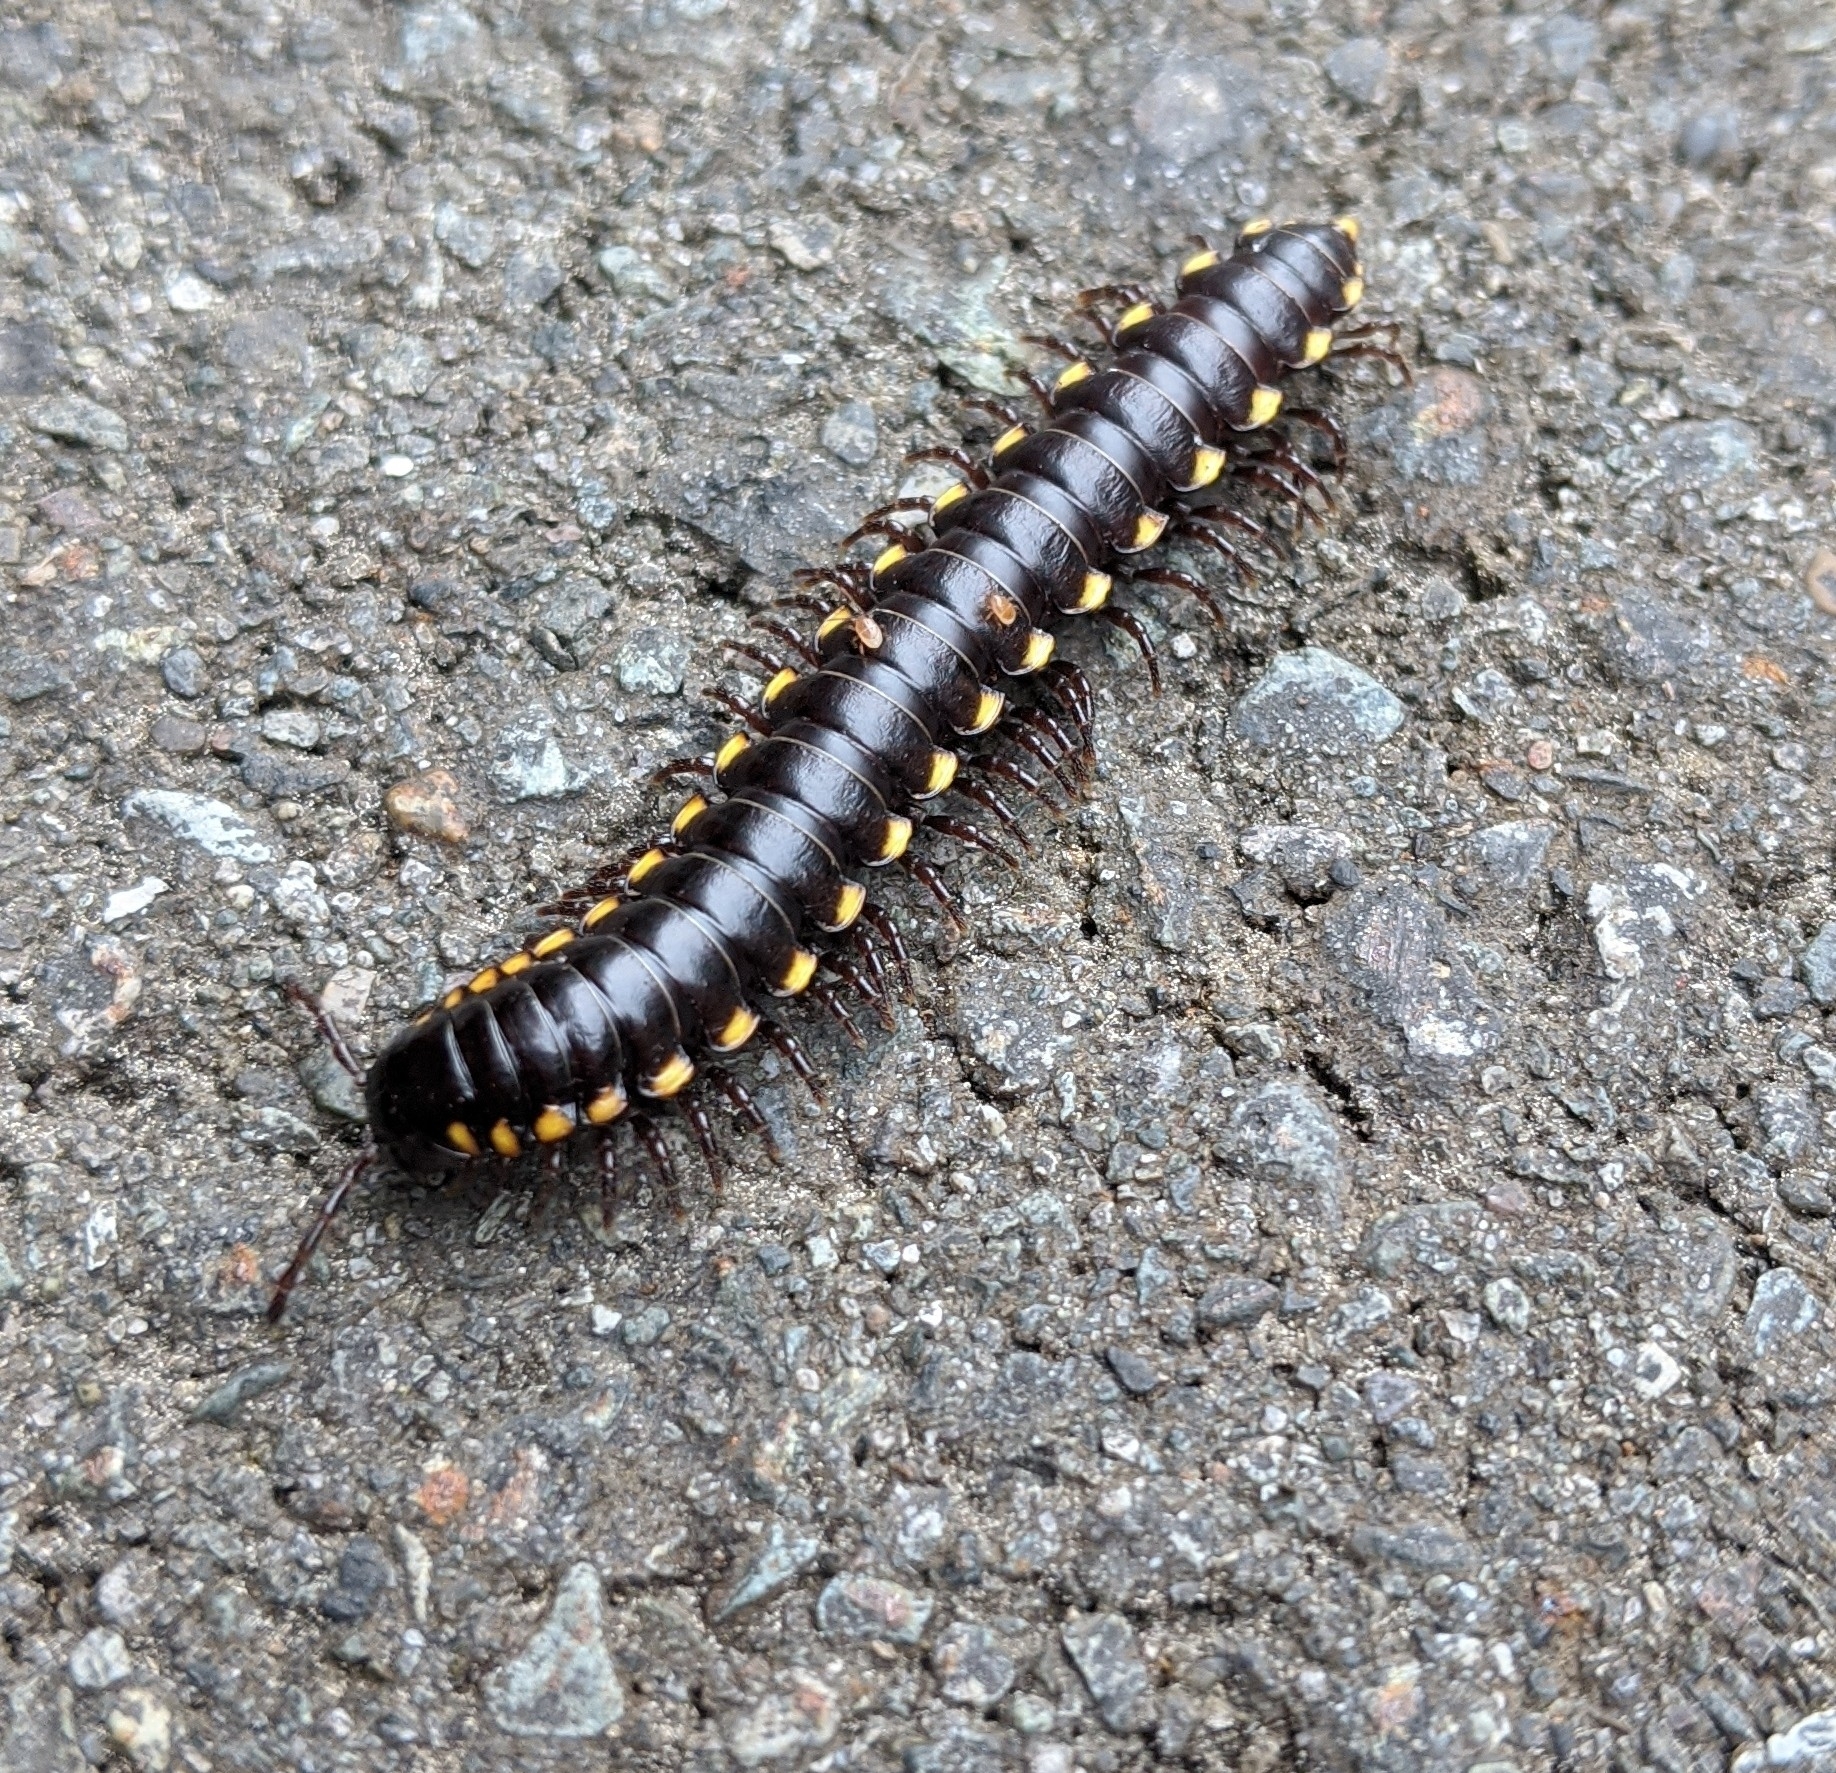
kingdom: Animalia
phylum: Arthropoda
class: Diplopoda
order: Polydesmida
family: Xystodesmidae
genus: Harpaphe
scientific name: Harpaphe haydeniana
